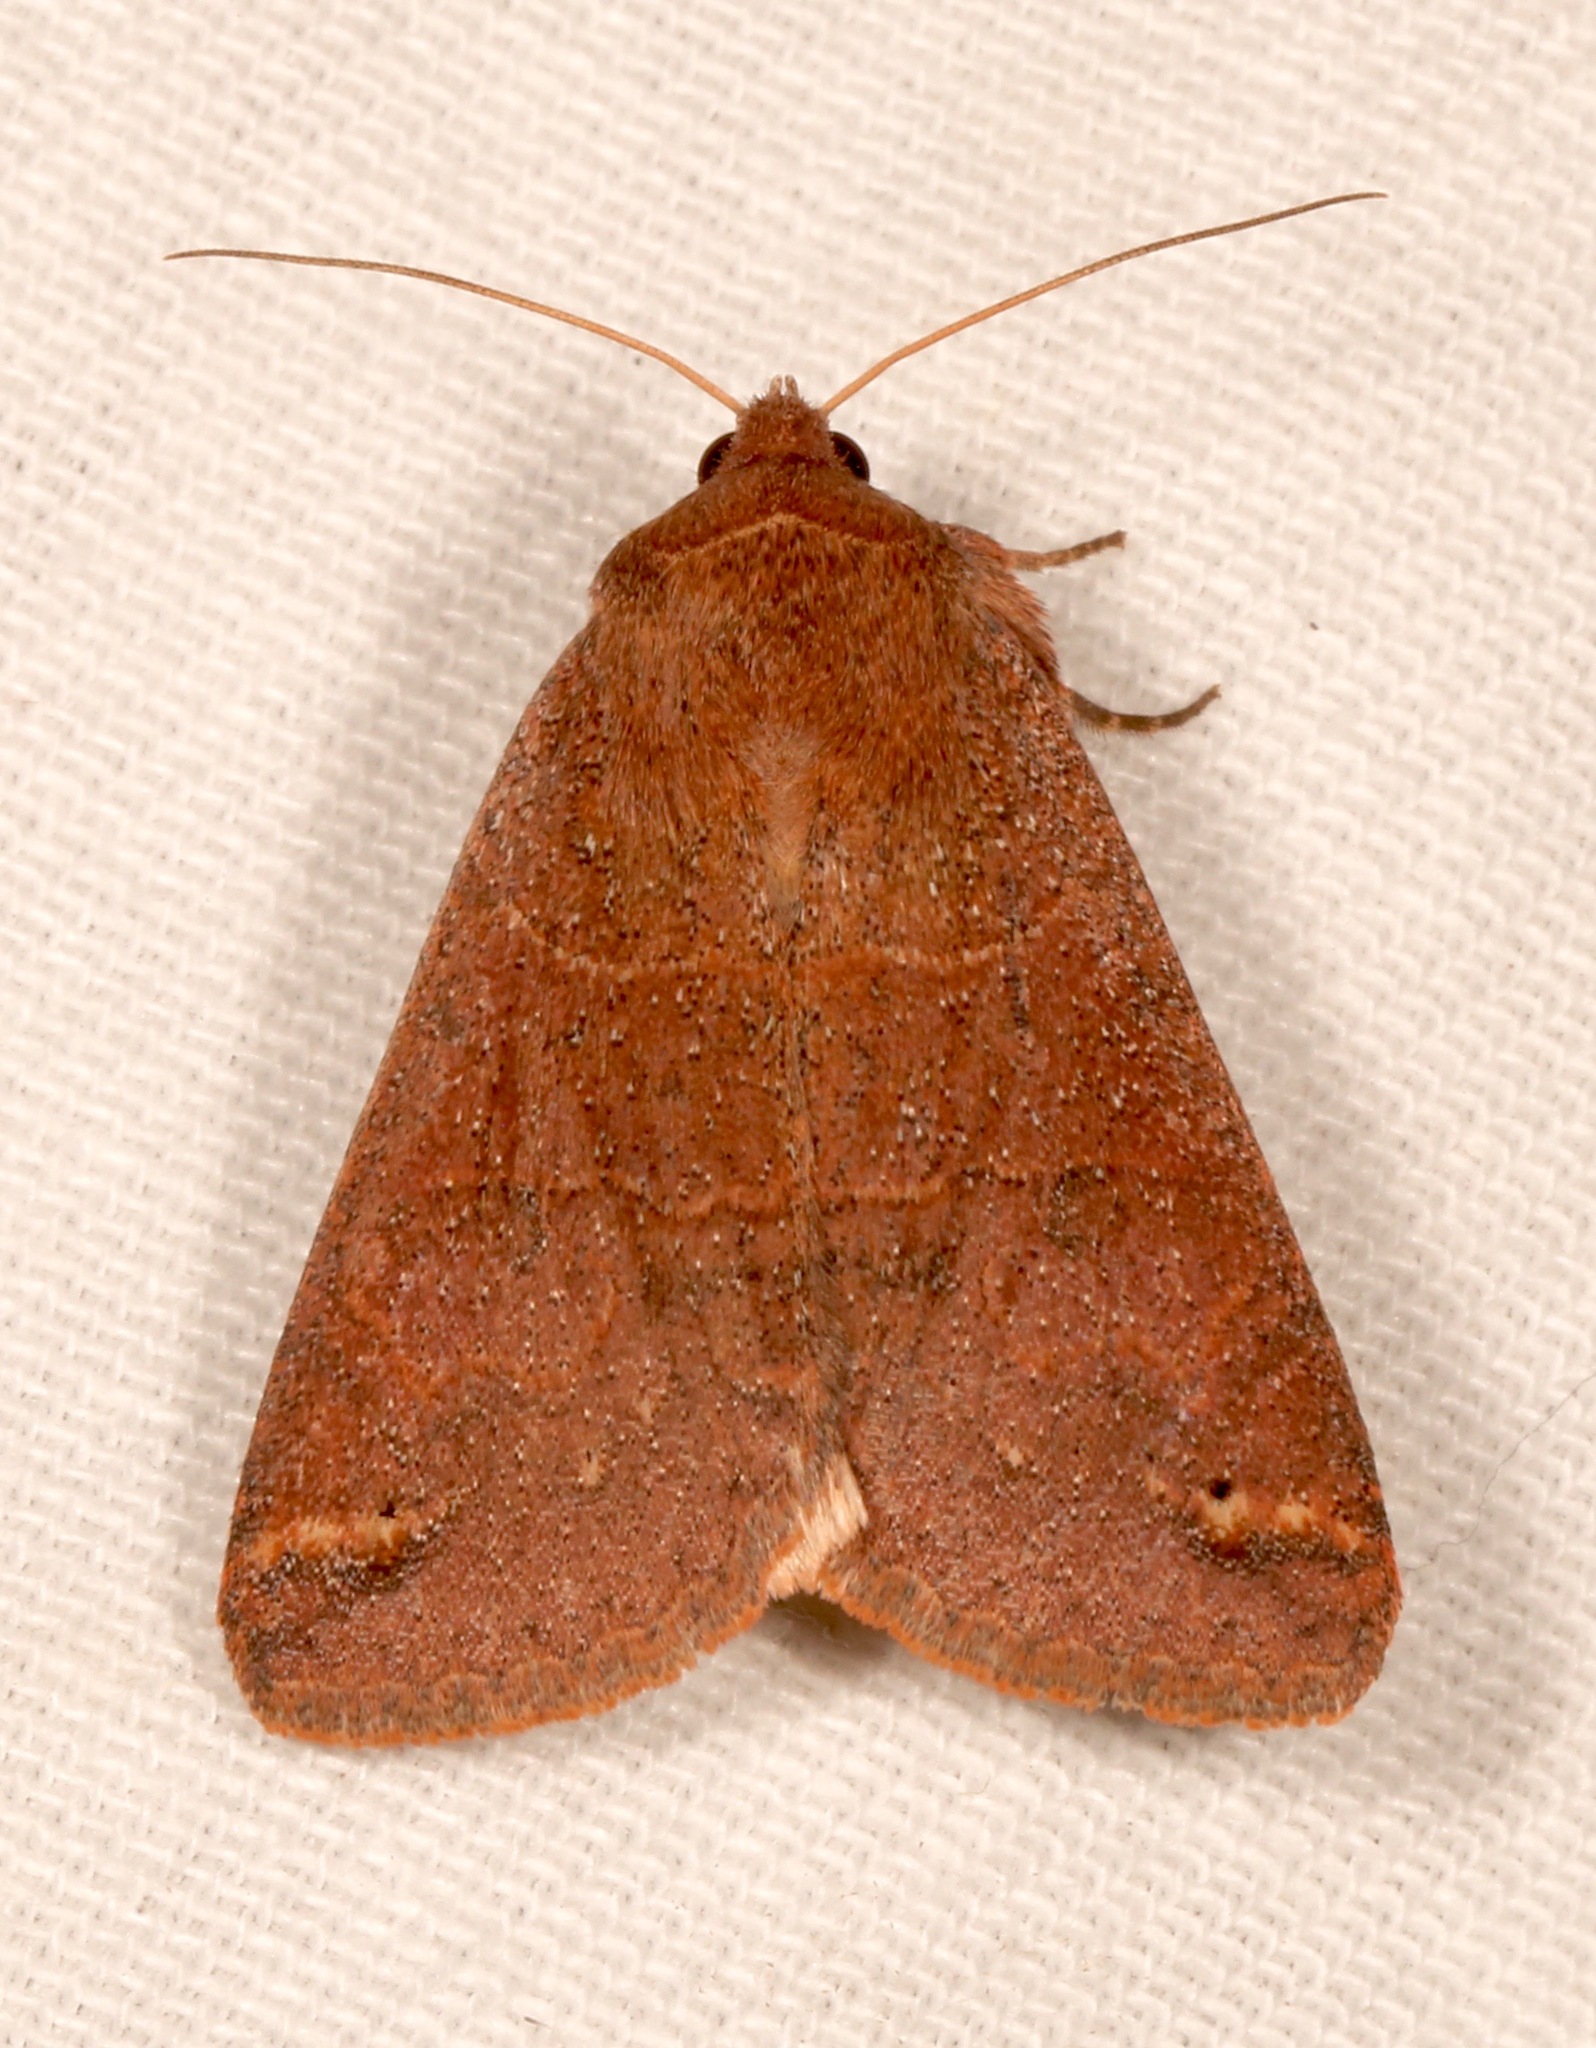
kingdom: Animalia
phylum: Arthropoda
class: Insecta
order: Lepidoptera
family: Erebidae
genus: Cissusa
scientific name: Cissusa spadix
